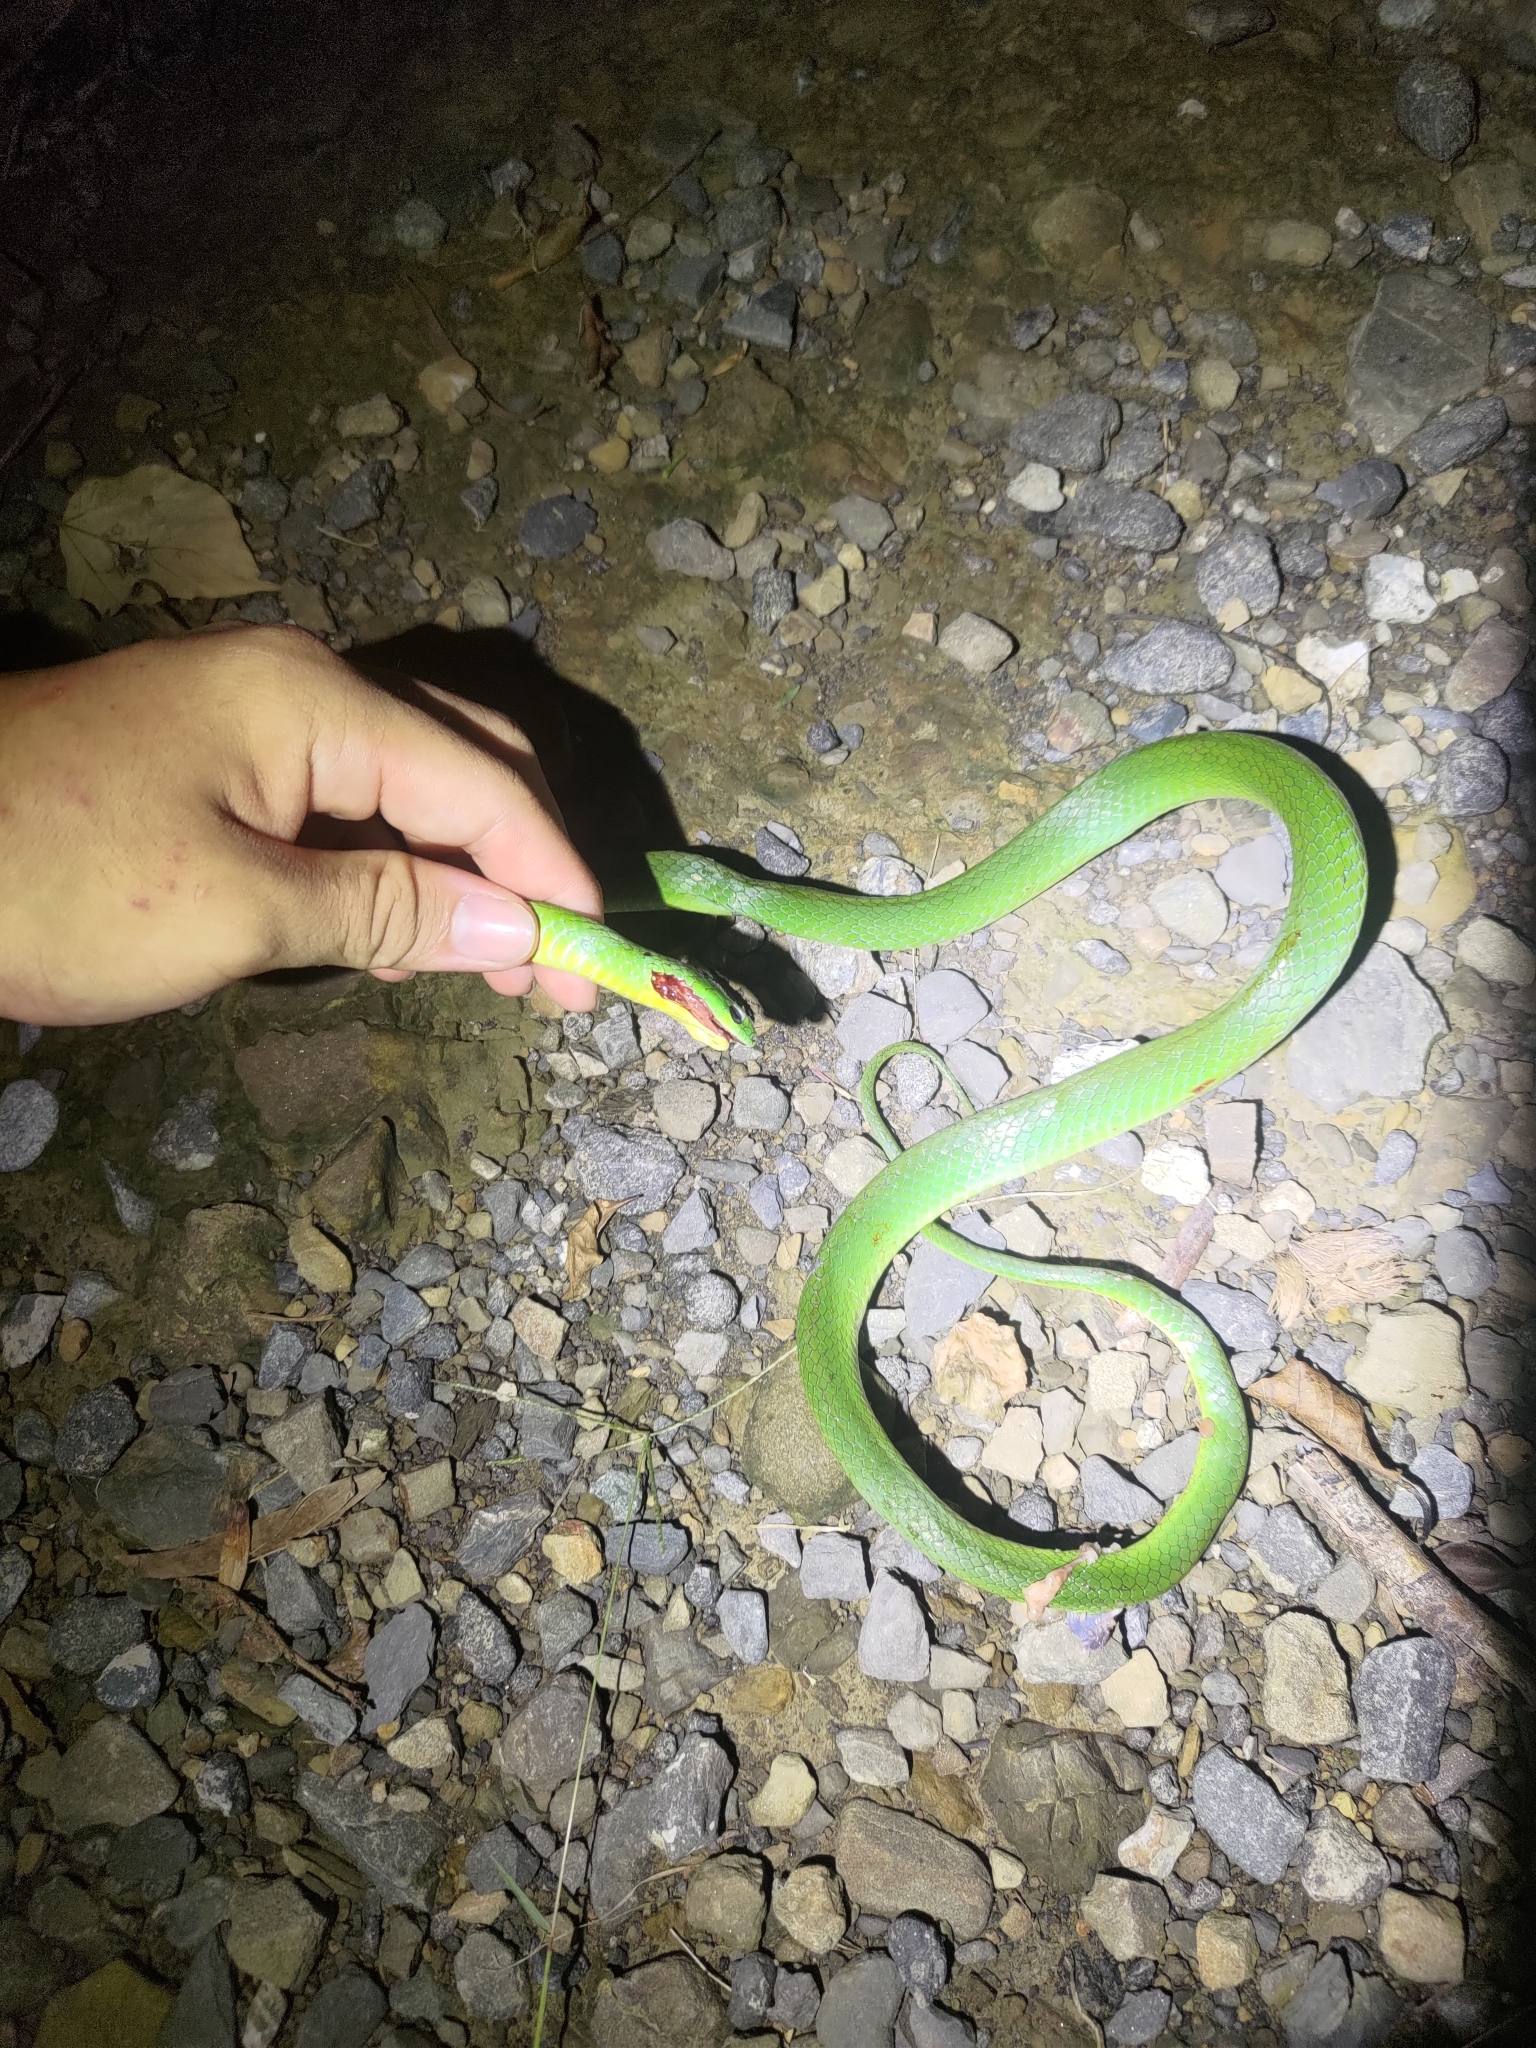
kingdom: Animalia
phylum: Chordata
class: Squamata
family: Colubridae
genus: Ptyas
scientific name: Ptyas major
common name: Chinese green snake
